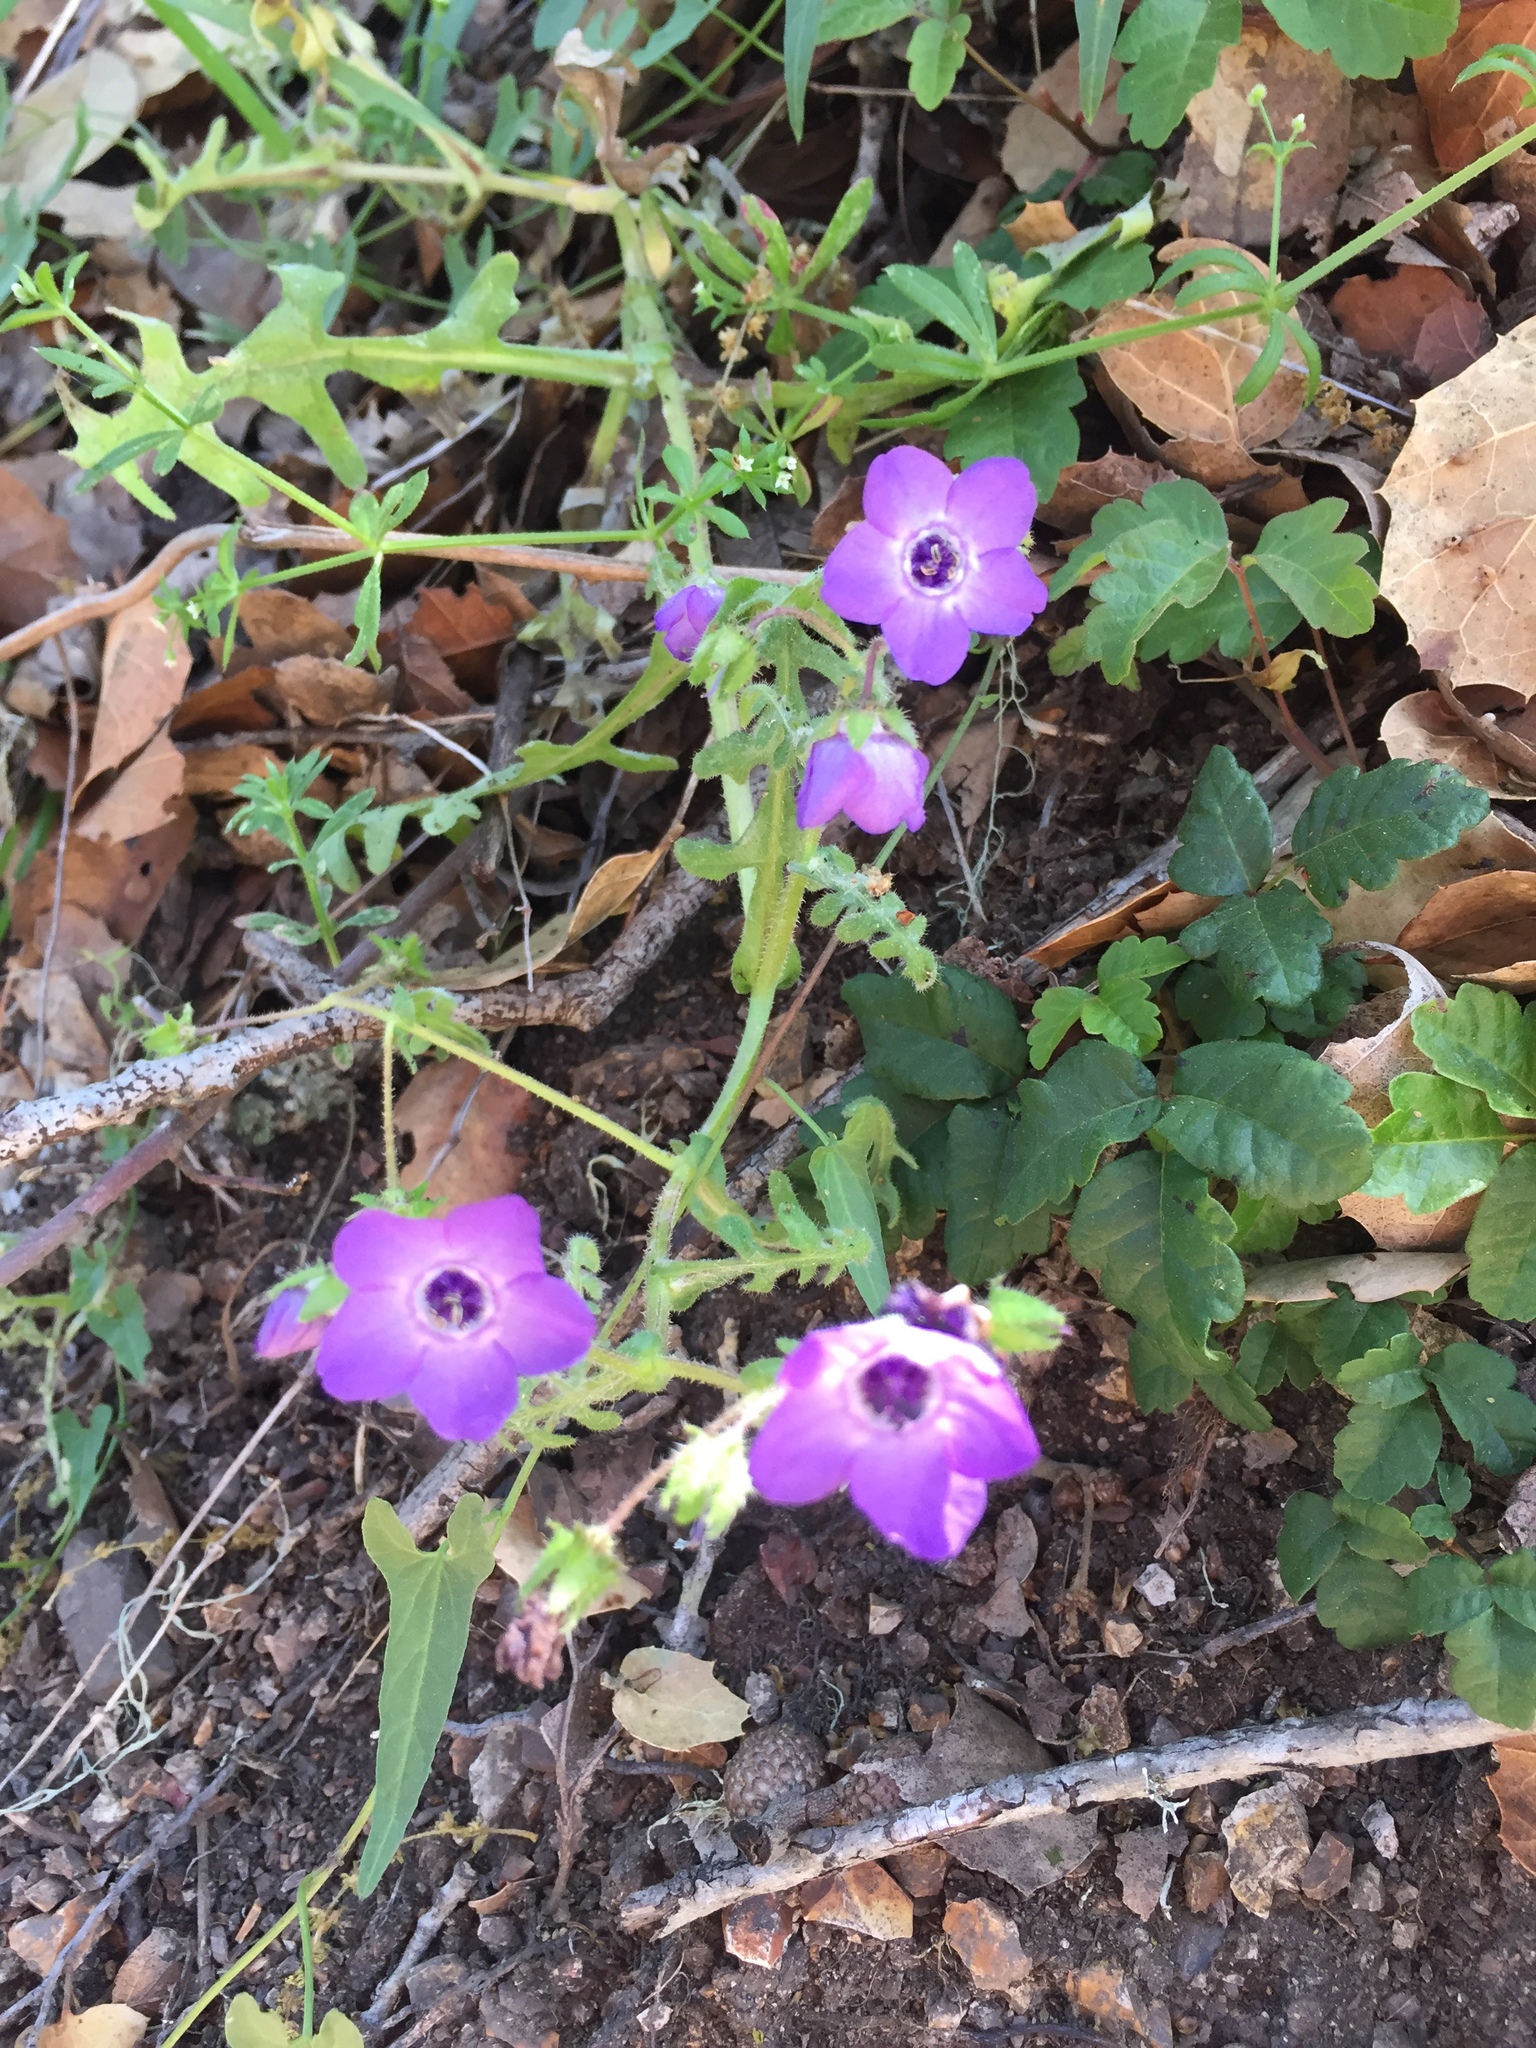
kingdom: Plantae
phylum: Tracheophyta
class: Magnoliopsida
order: Boraginales
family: Hydrophyllaceae
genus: Pholistoma
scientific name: Pholistoma auritum
